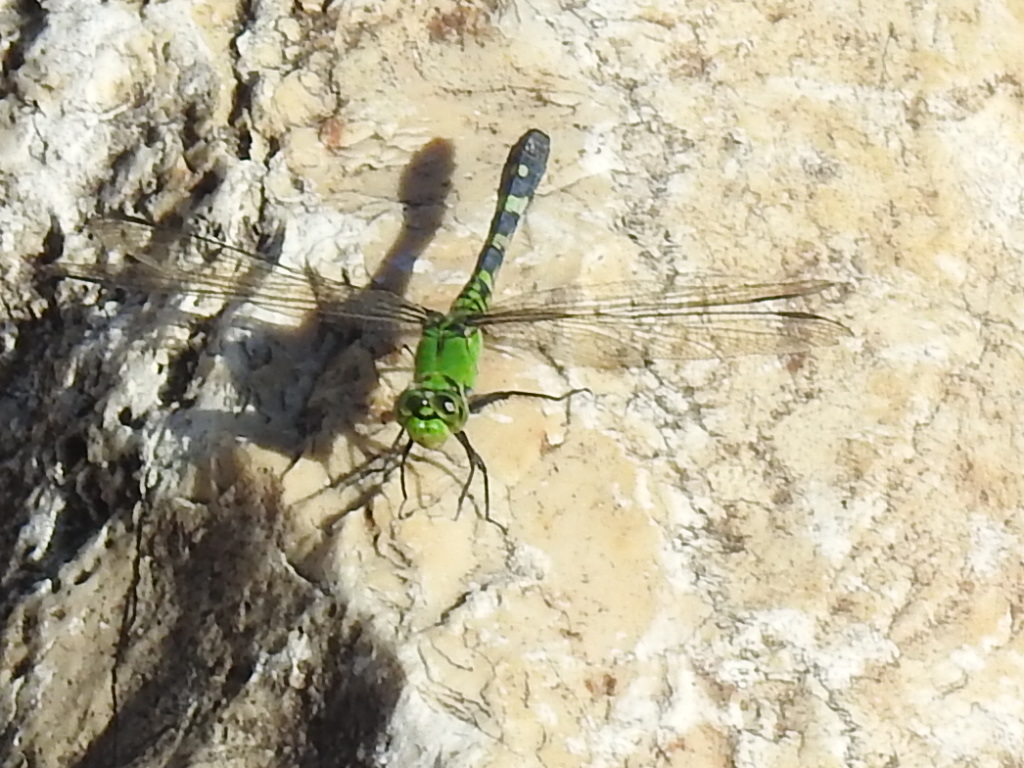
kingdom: Animalia
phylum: Arthropoda
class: Insecta
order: Odonata
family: Libellulidae
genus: Erythemis
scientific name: Erythemis simplicicollis
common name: Eastern pondhawk
